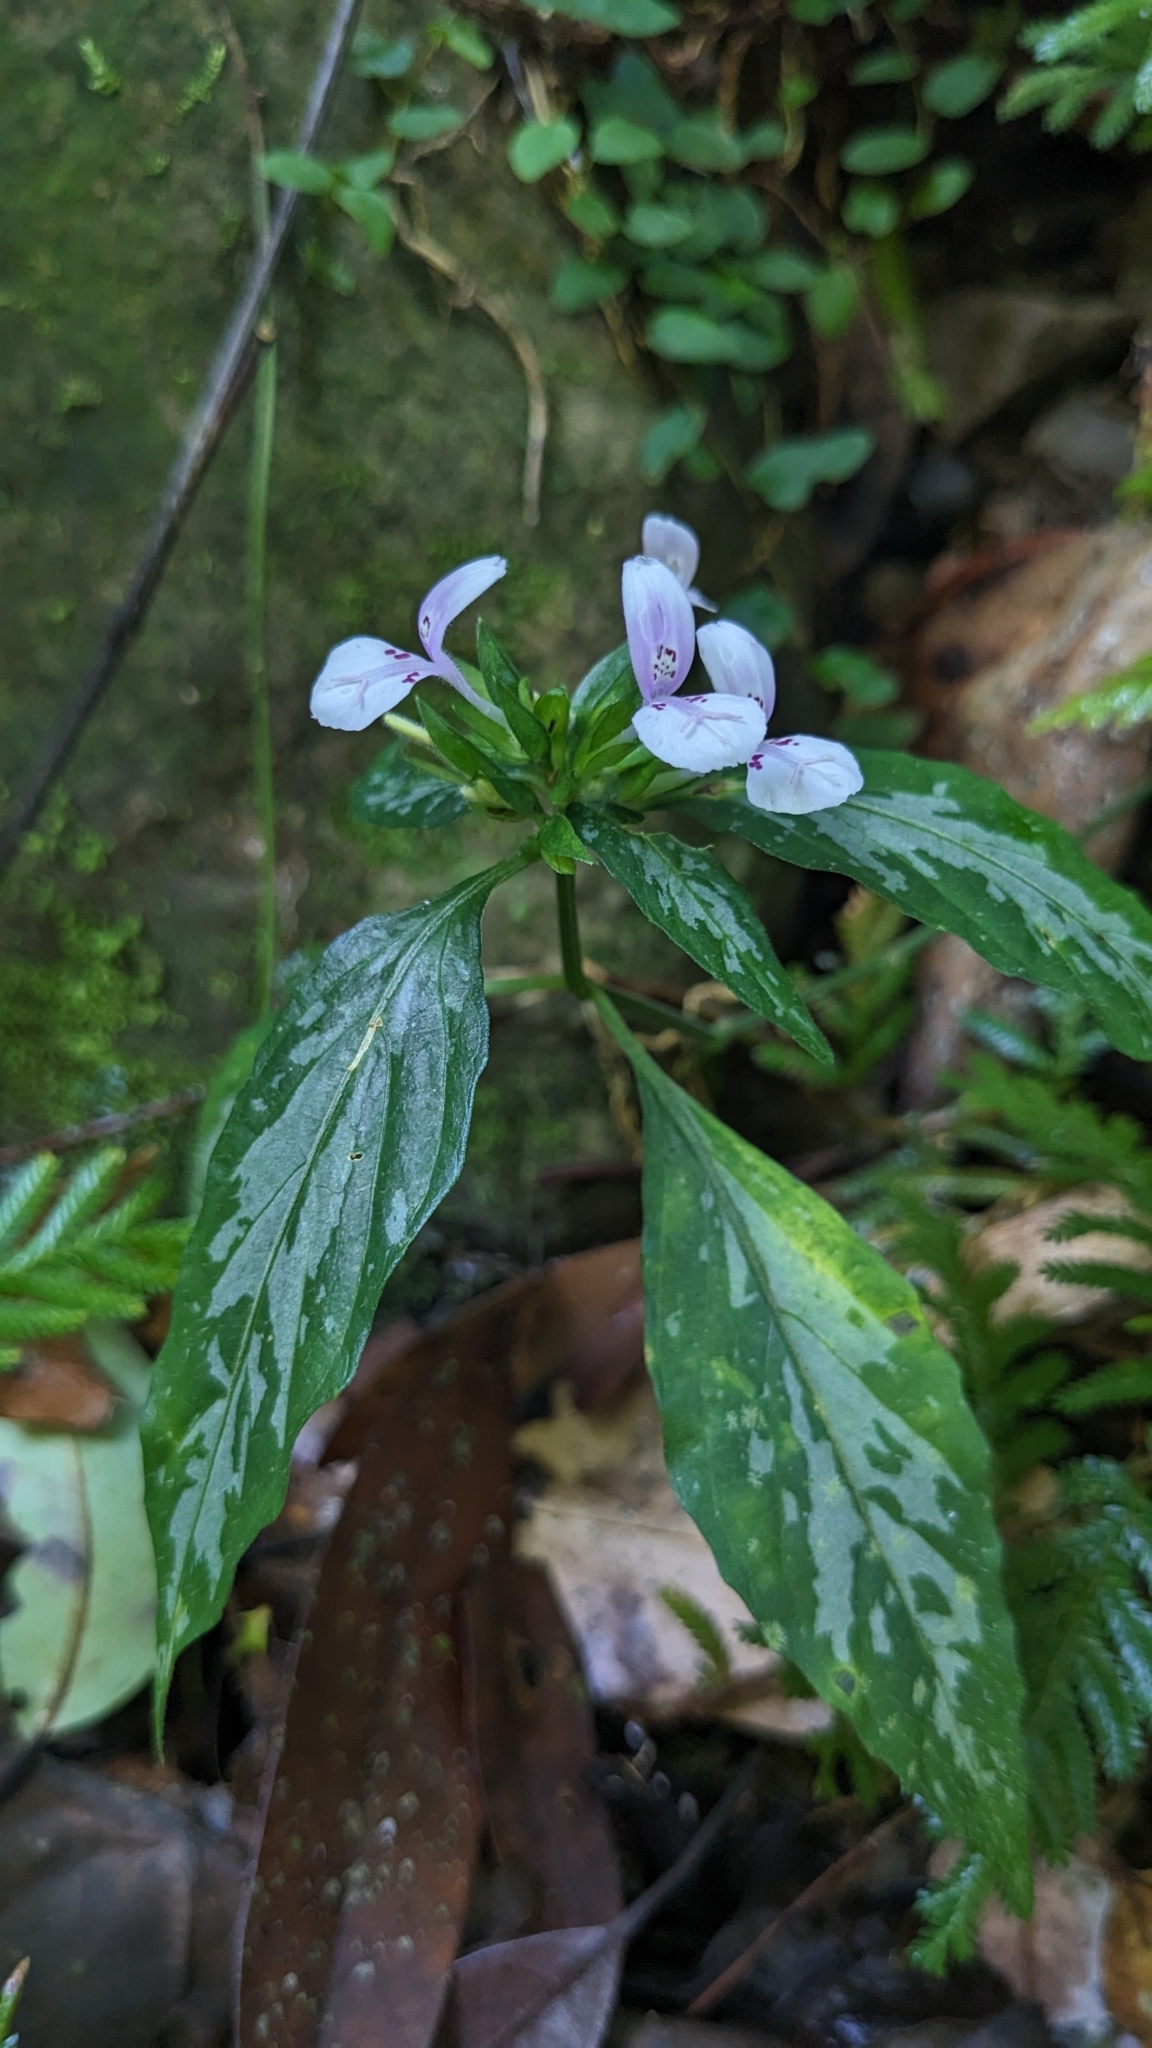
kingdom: Plantae
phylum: Tracheophyta
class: Magnoliopsida
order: Lamiales
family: Acanthaceae
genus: Dicliptera
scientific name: Dicliptera japonica
